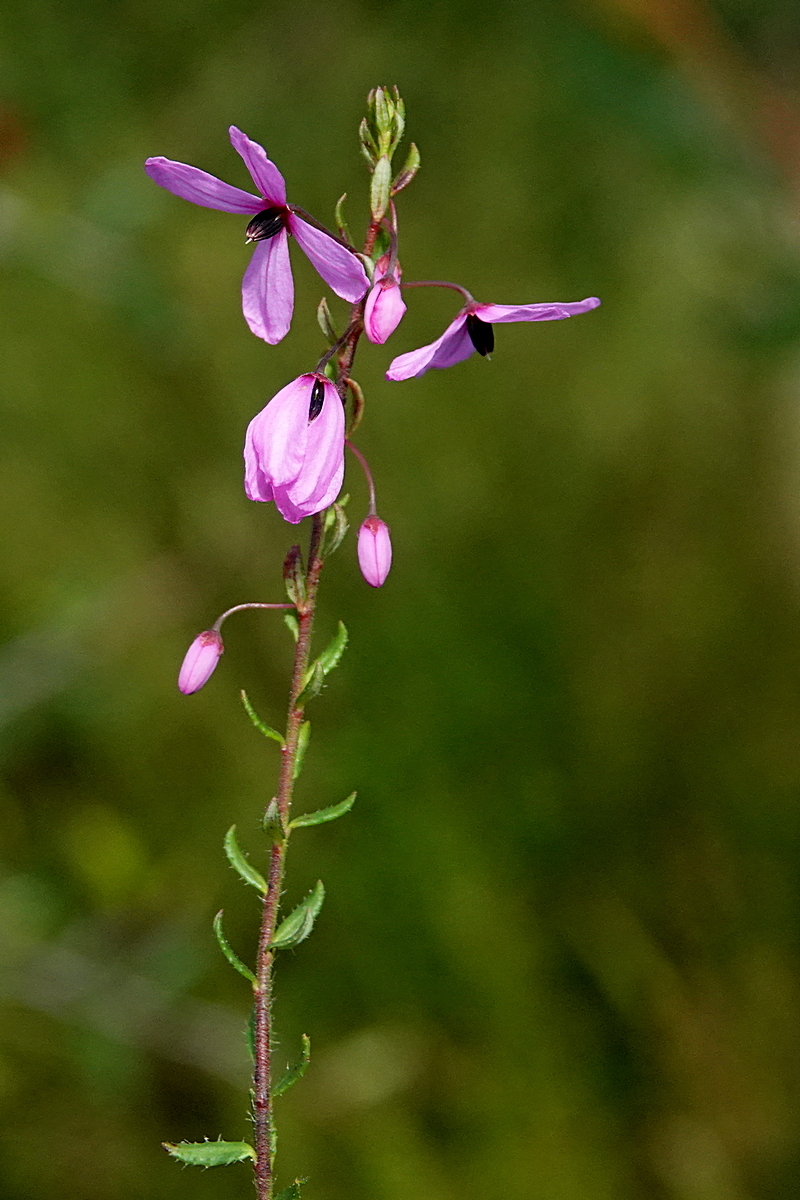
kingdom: Plantae
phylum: Tracheophyta
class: Magnoliopsida
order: Oxalidales
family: Elaeocarpaceae
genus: Tetratheca
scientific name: Tetratheca pilosa
